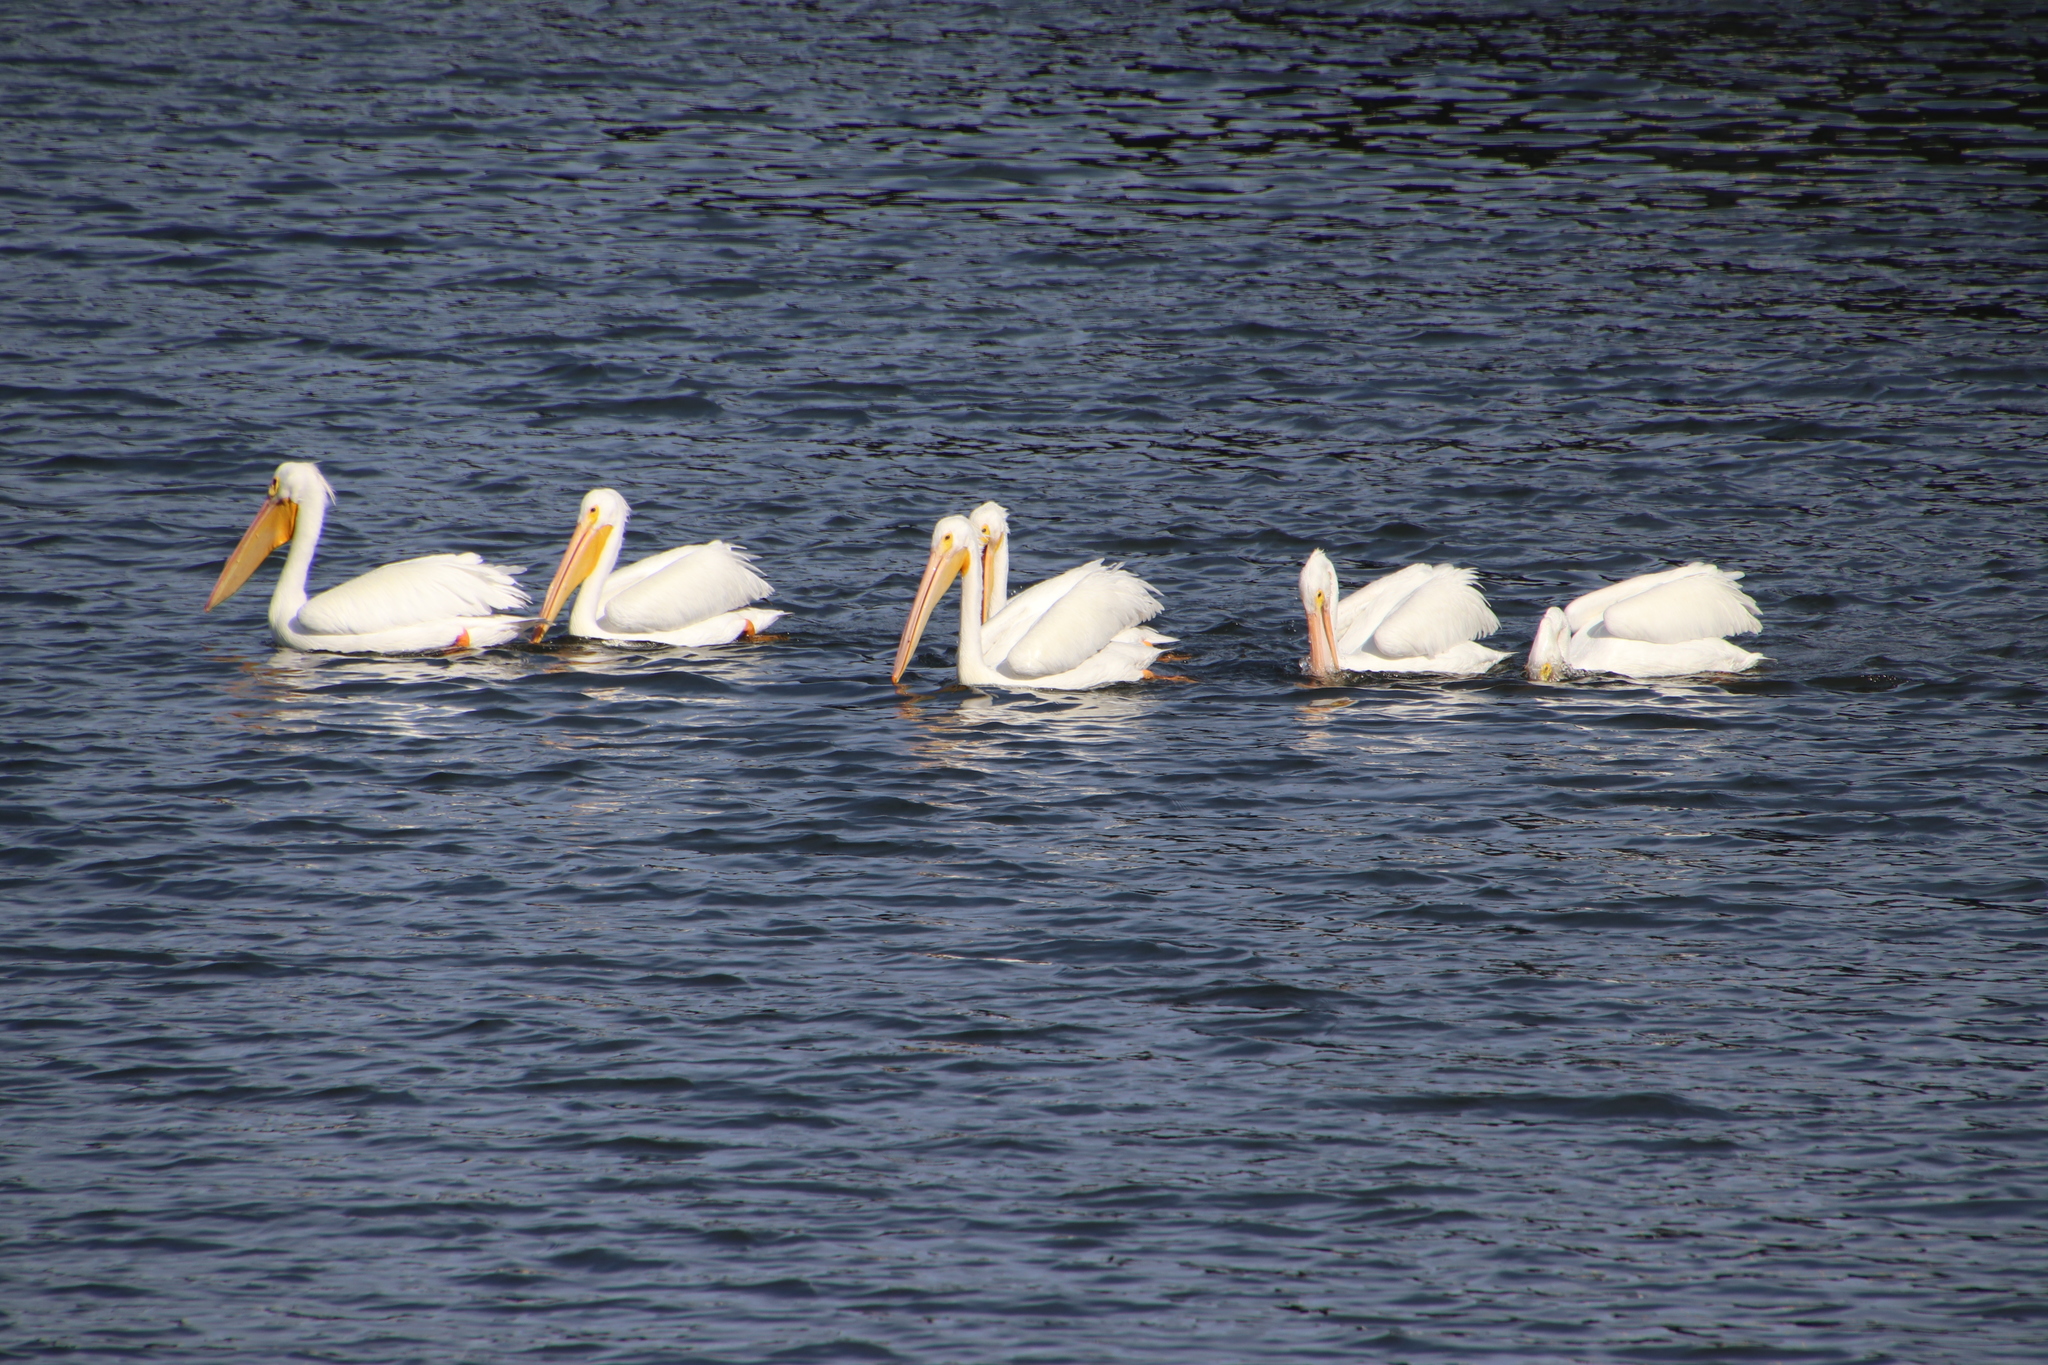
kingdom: Animalia
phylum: Chordata
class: Aves
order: Pelecaniformes
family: Pelecanidae
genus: Pelecanus
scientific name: Pelecanus erythrorhynchos
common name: American white pelican
